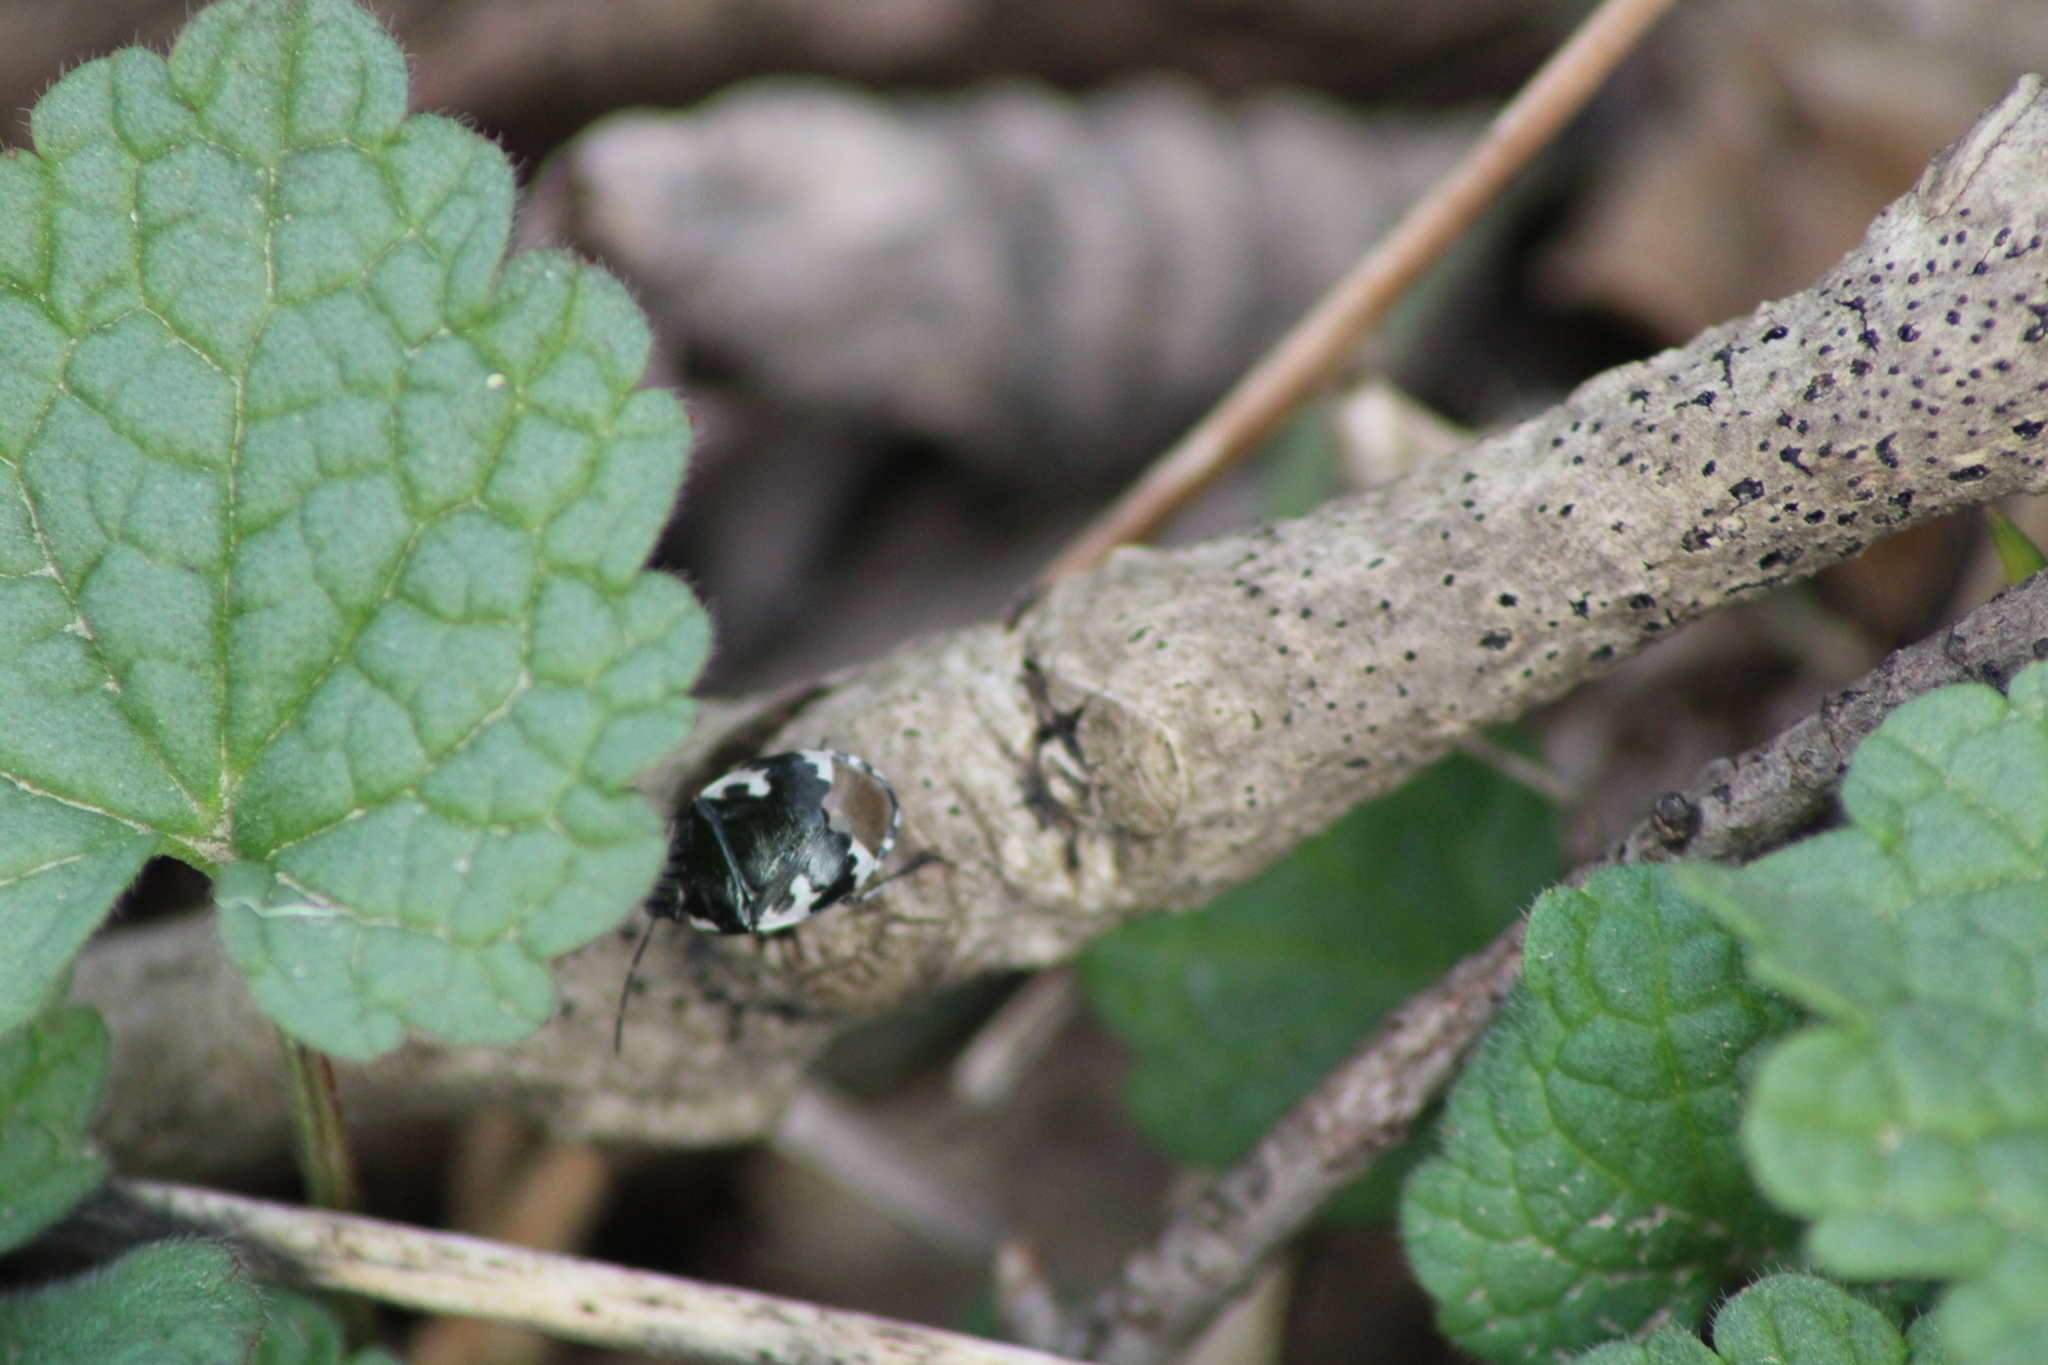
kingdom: Animalia
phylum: Arthropoda
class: Insecta
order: Hemiptera
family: Cydnidae
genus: Tritomegas
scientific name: Tritomegas bicolor
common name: Pied shieldbug
